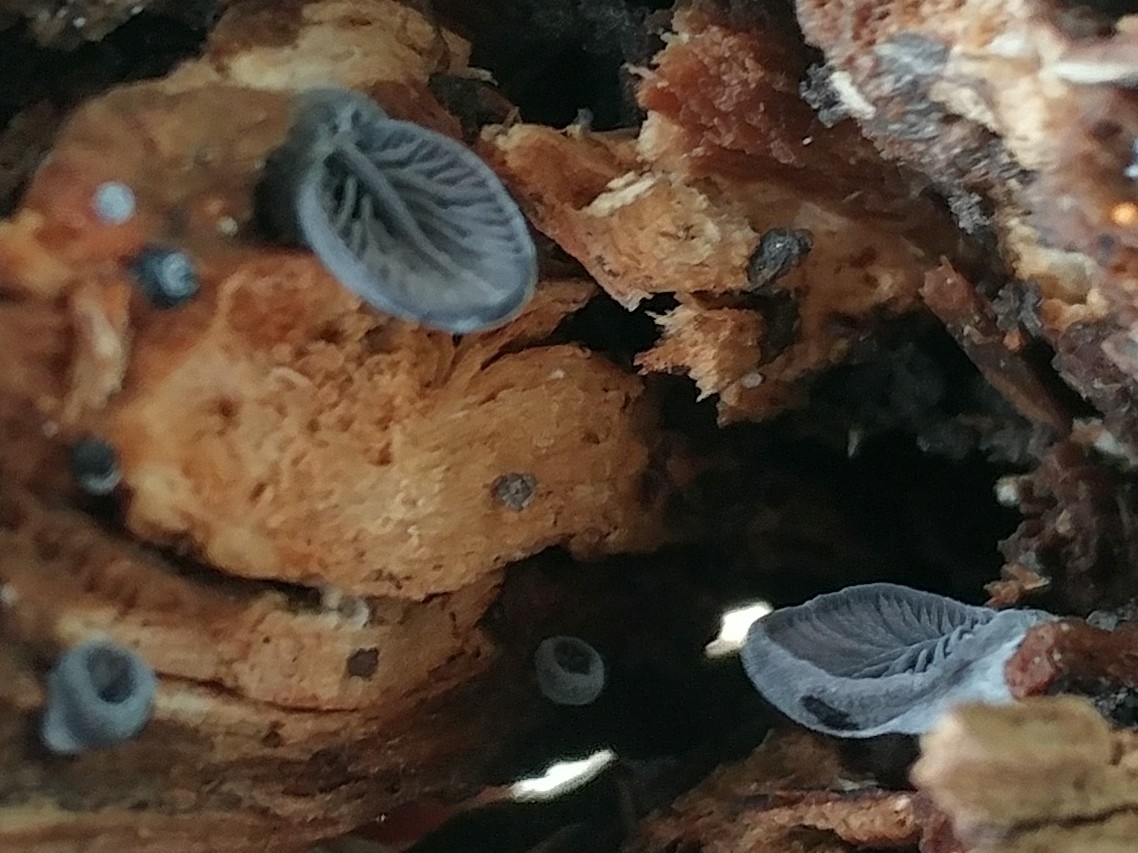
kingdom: Fungi
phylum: Basidiomycota
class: Agaricomycetes
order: Agaricales
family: Pleurotaceae
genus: Resupinatus
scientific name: Resupinatus applicatus
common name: Smoked oysterling
